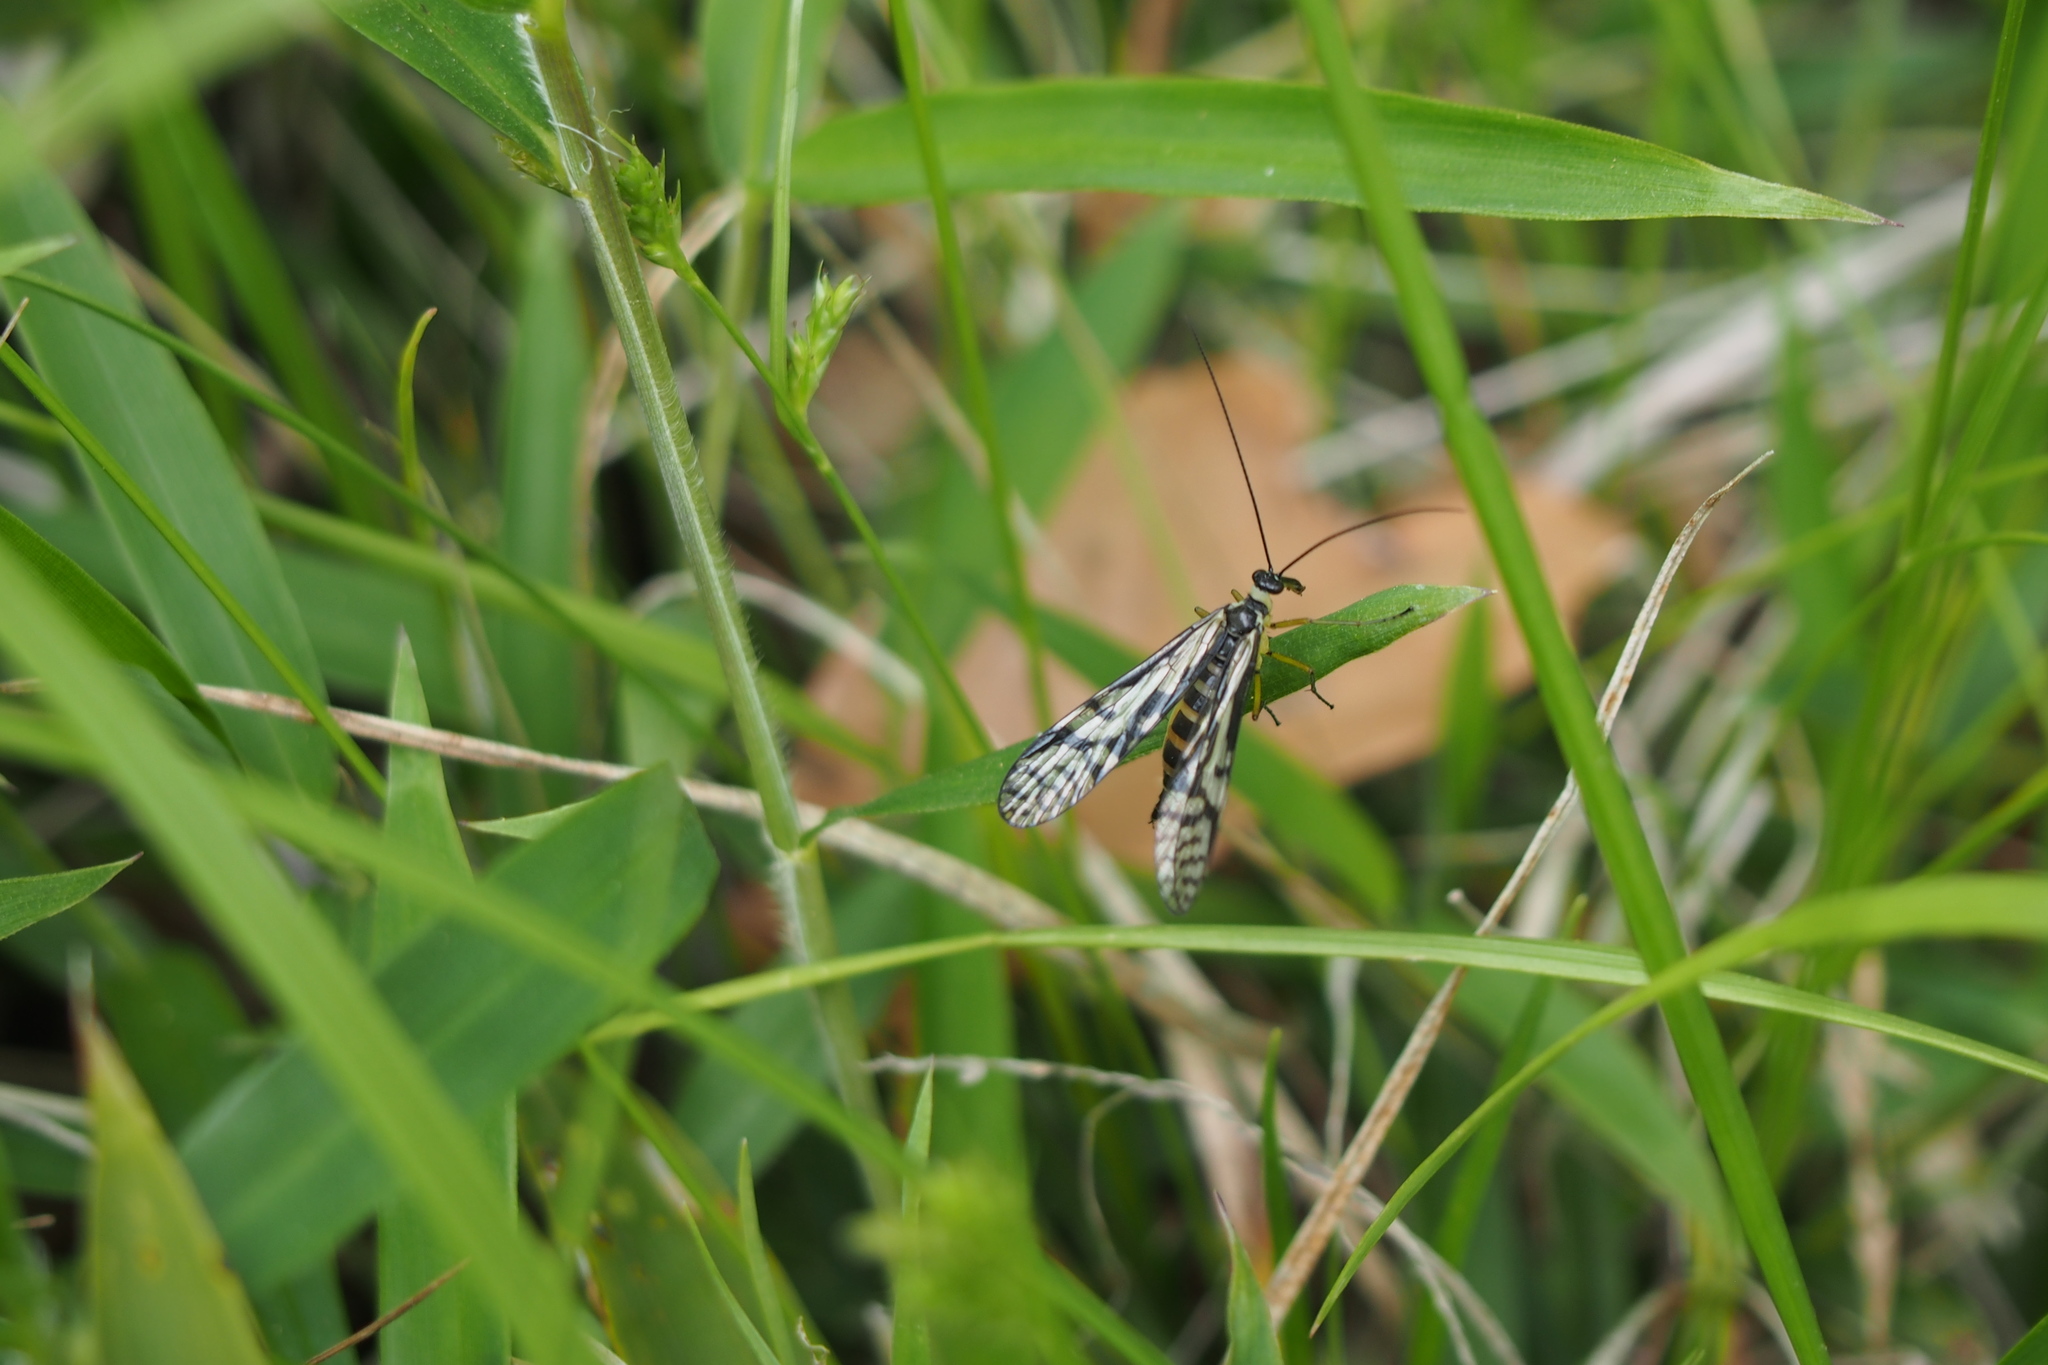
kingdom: Animalia
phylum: Arthropoda
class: Insecta
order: Mecoptera
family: Panorpidae
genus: Panorpa
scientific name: Panorpa multifasciaria
